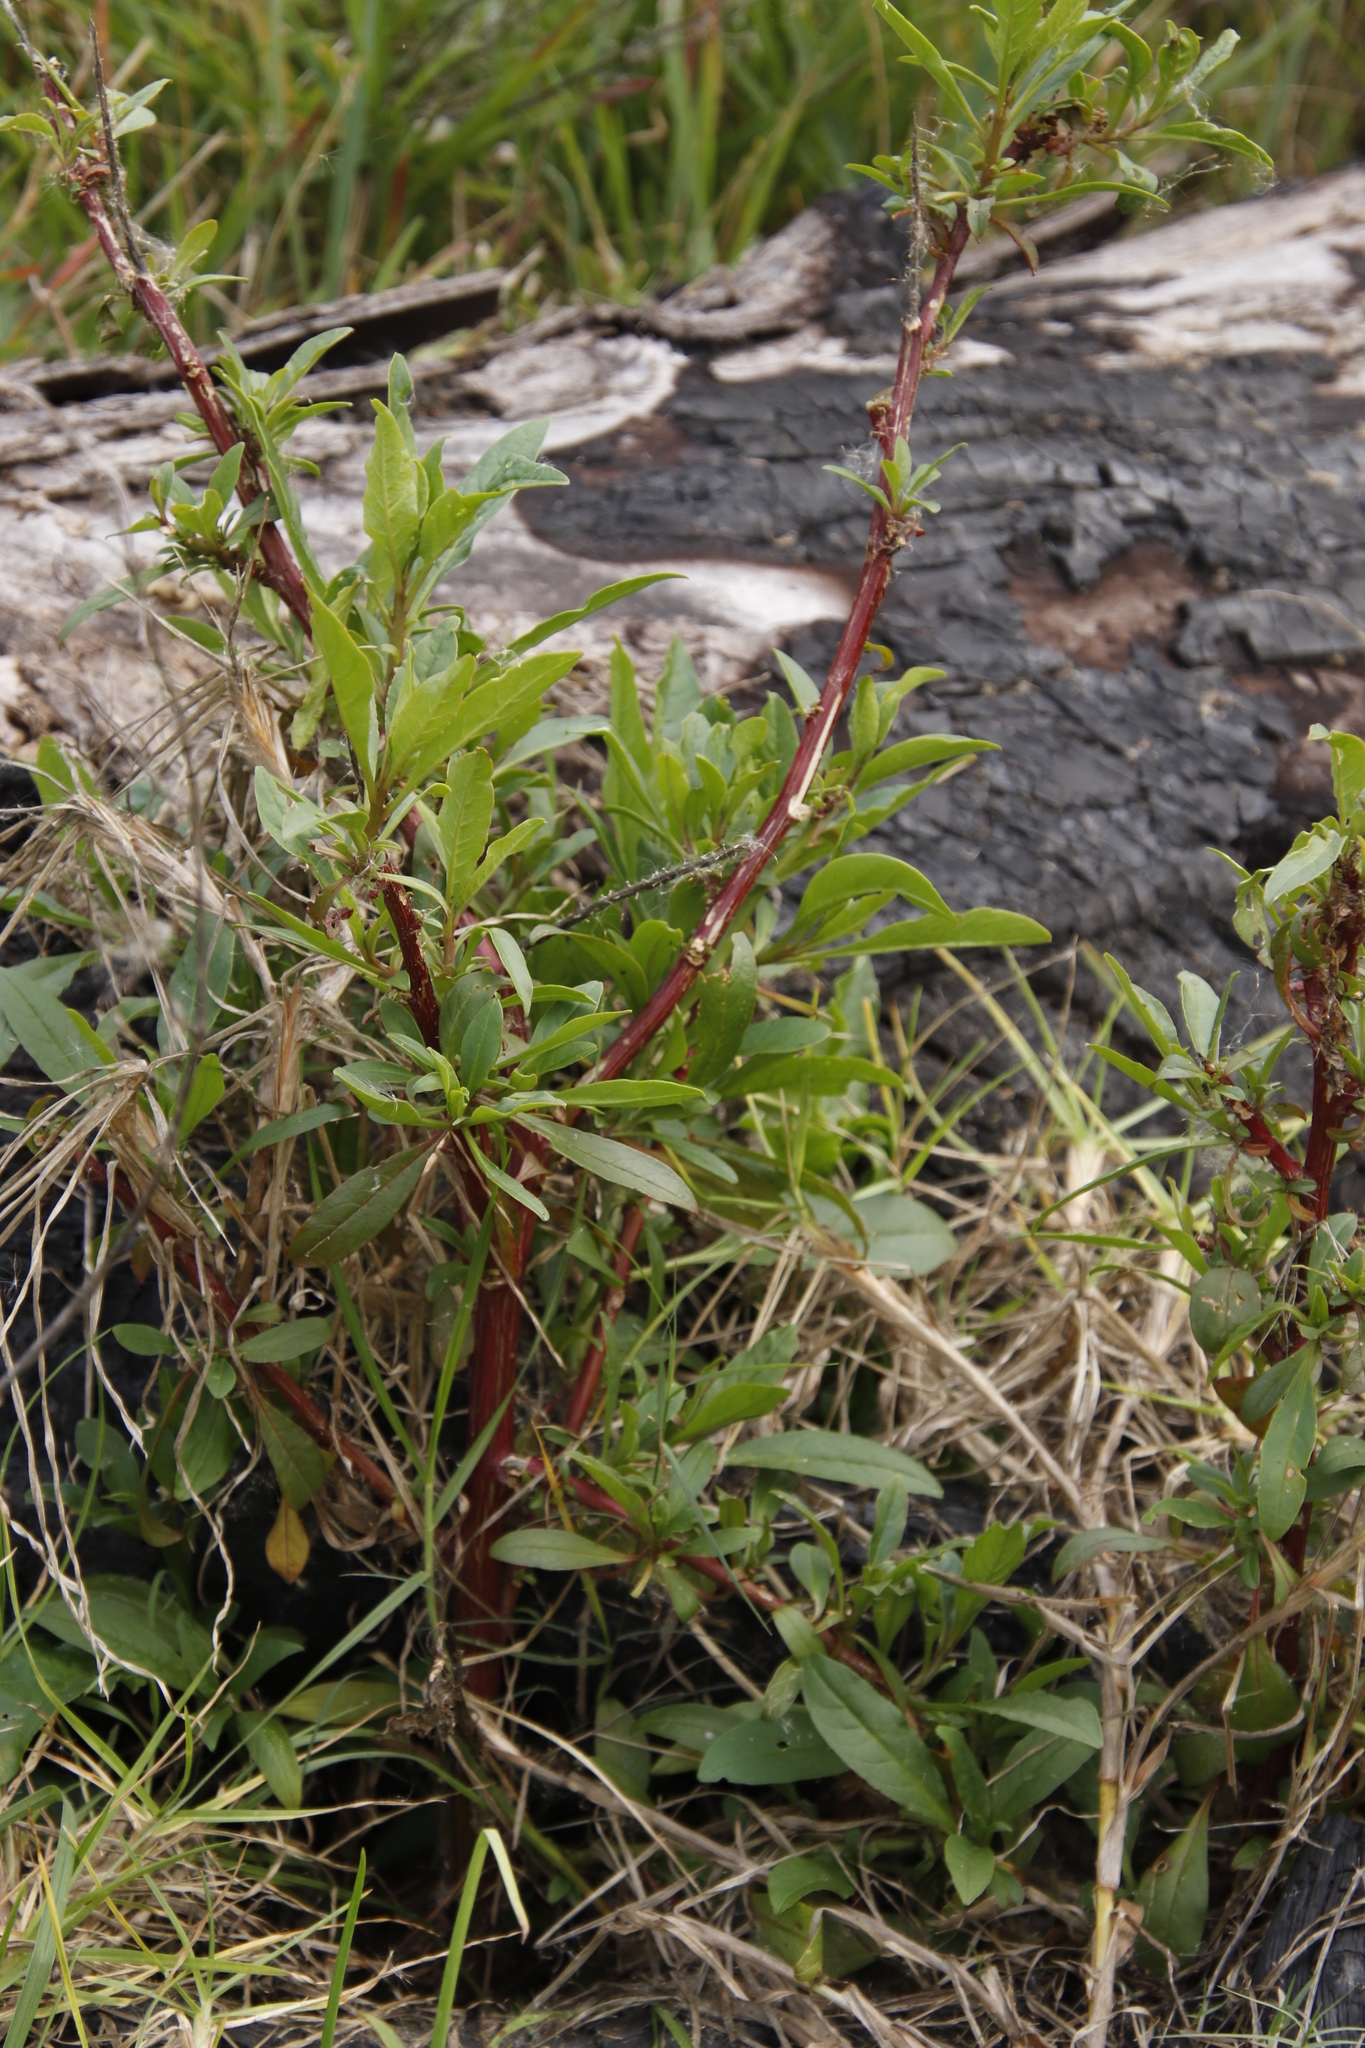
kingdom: Plantae
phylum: Tracheophyta
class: Magnoliopsida
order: Caryophyllales
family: Phytolaccaceae
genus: Phytolacca
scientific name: Phytolacca icosandra
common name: Button pokeweed
